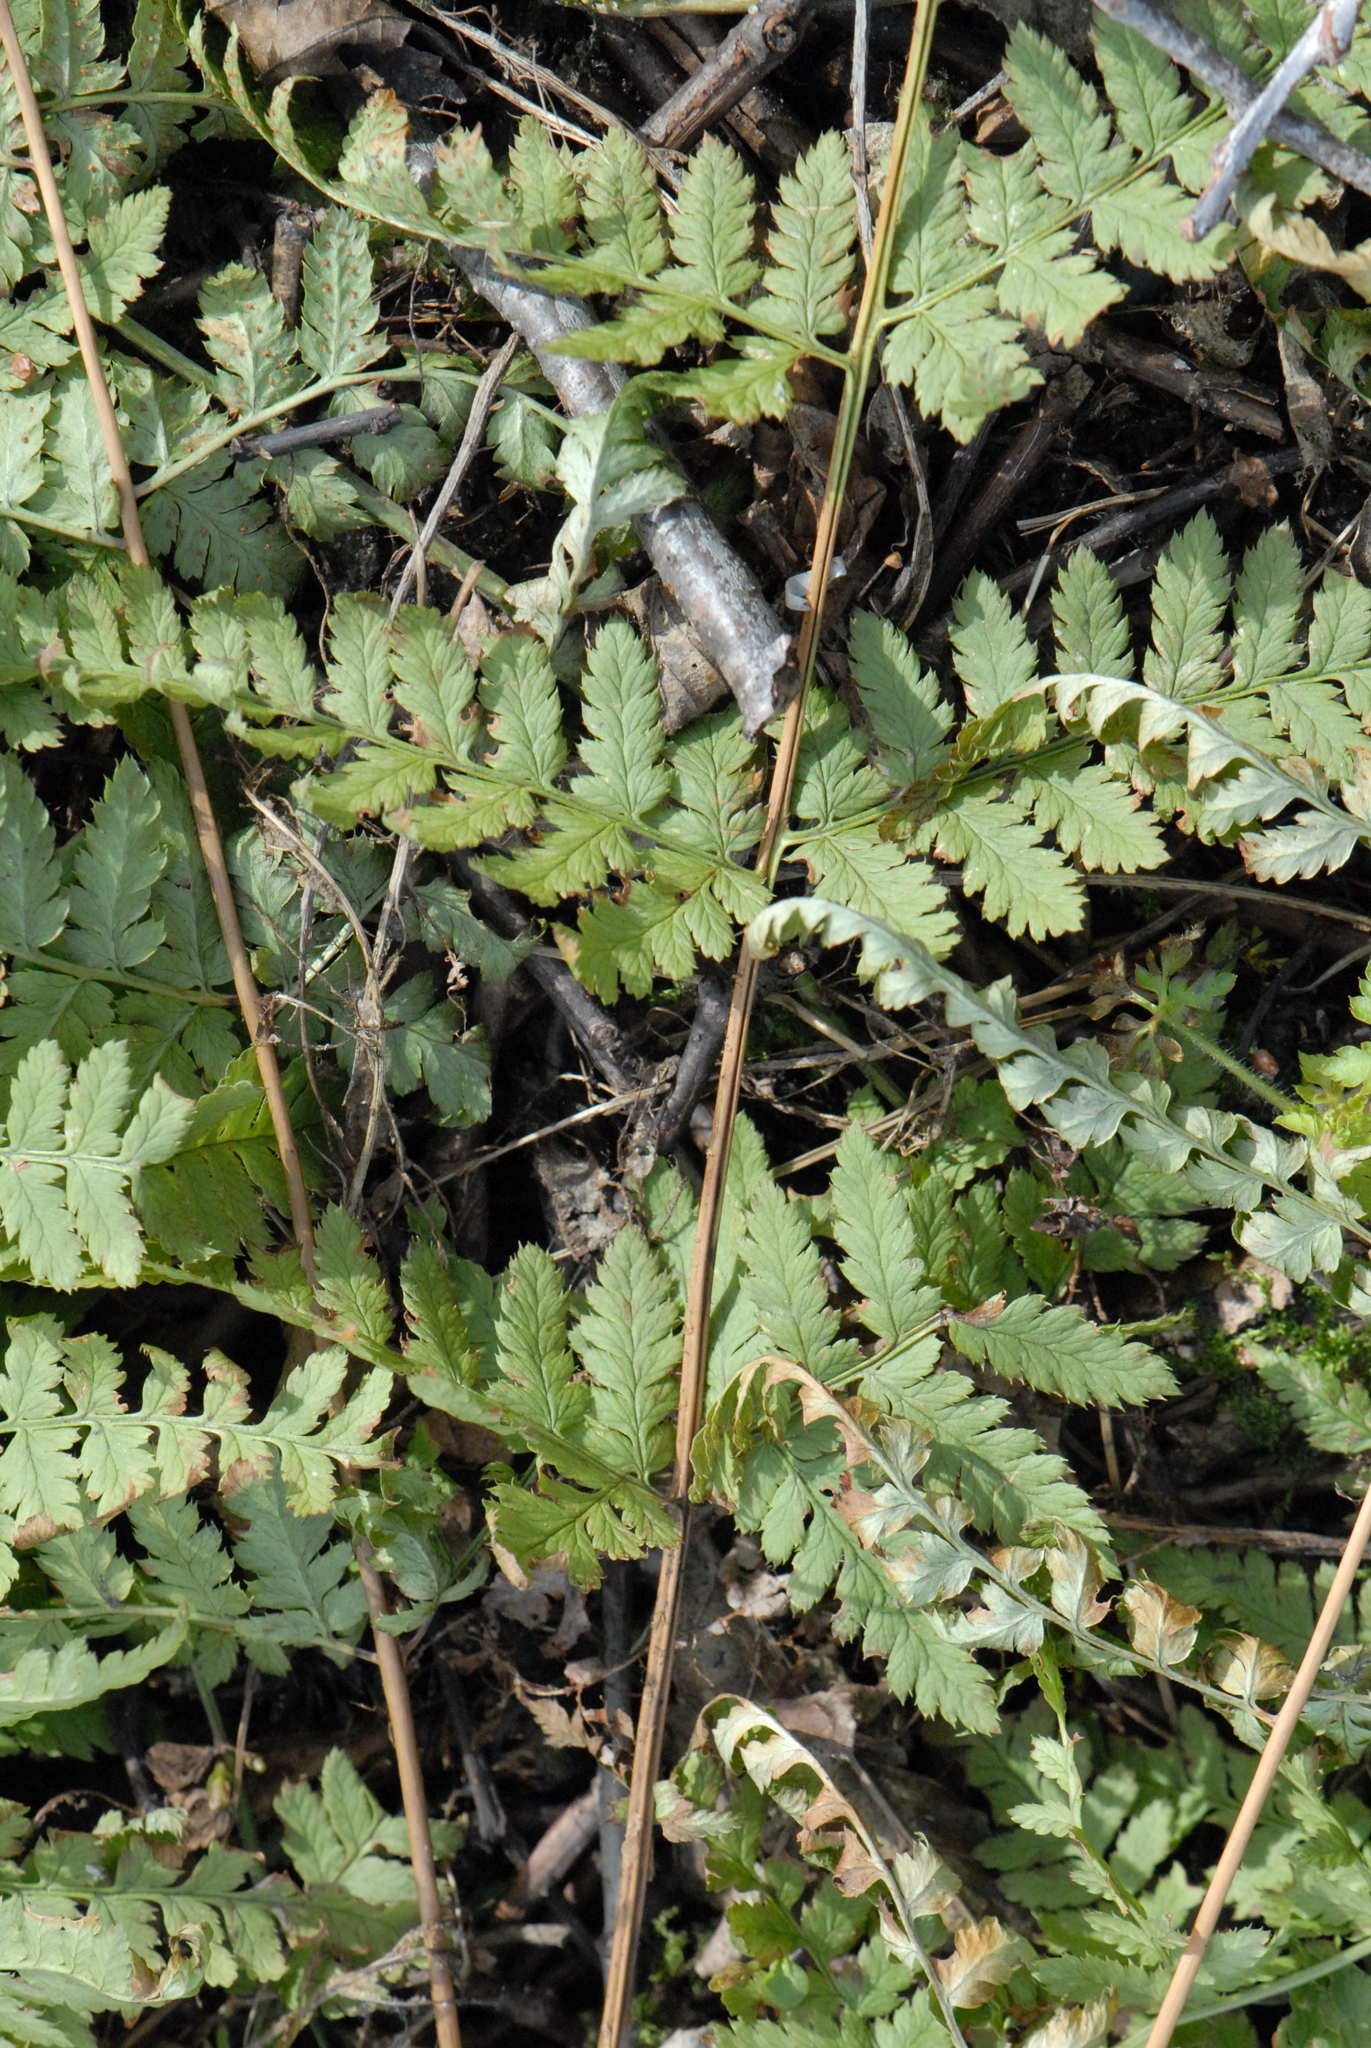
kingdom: Plantae
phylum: Tracheophyta
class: Polypodiopsida
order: Polypodiales
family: Dryopteridaceae
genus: Dryopteris
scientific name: Dryopteris carthusiana
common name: Narrow buckler-fern
